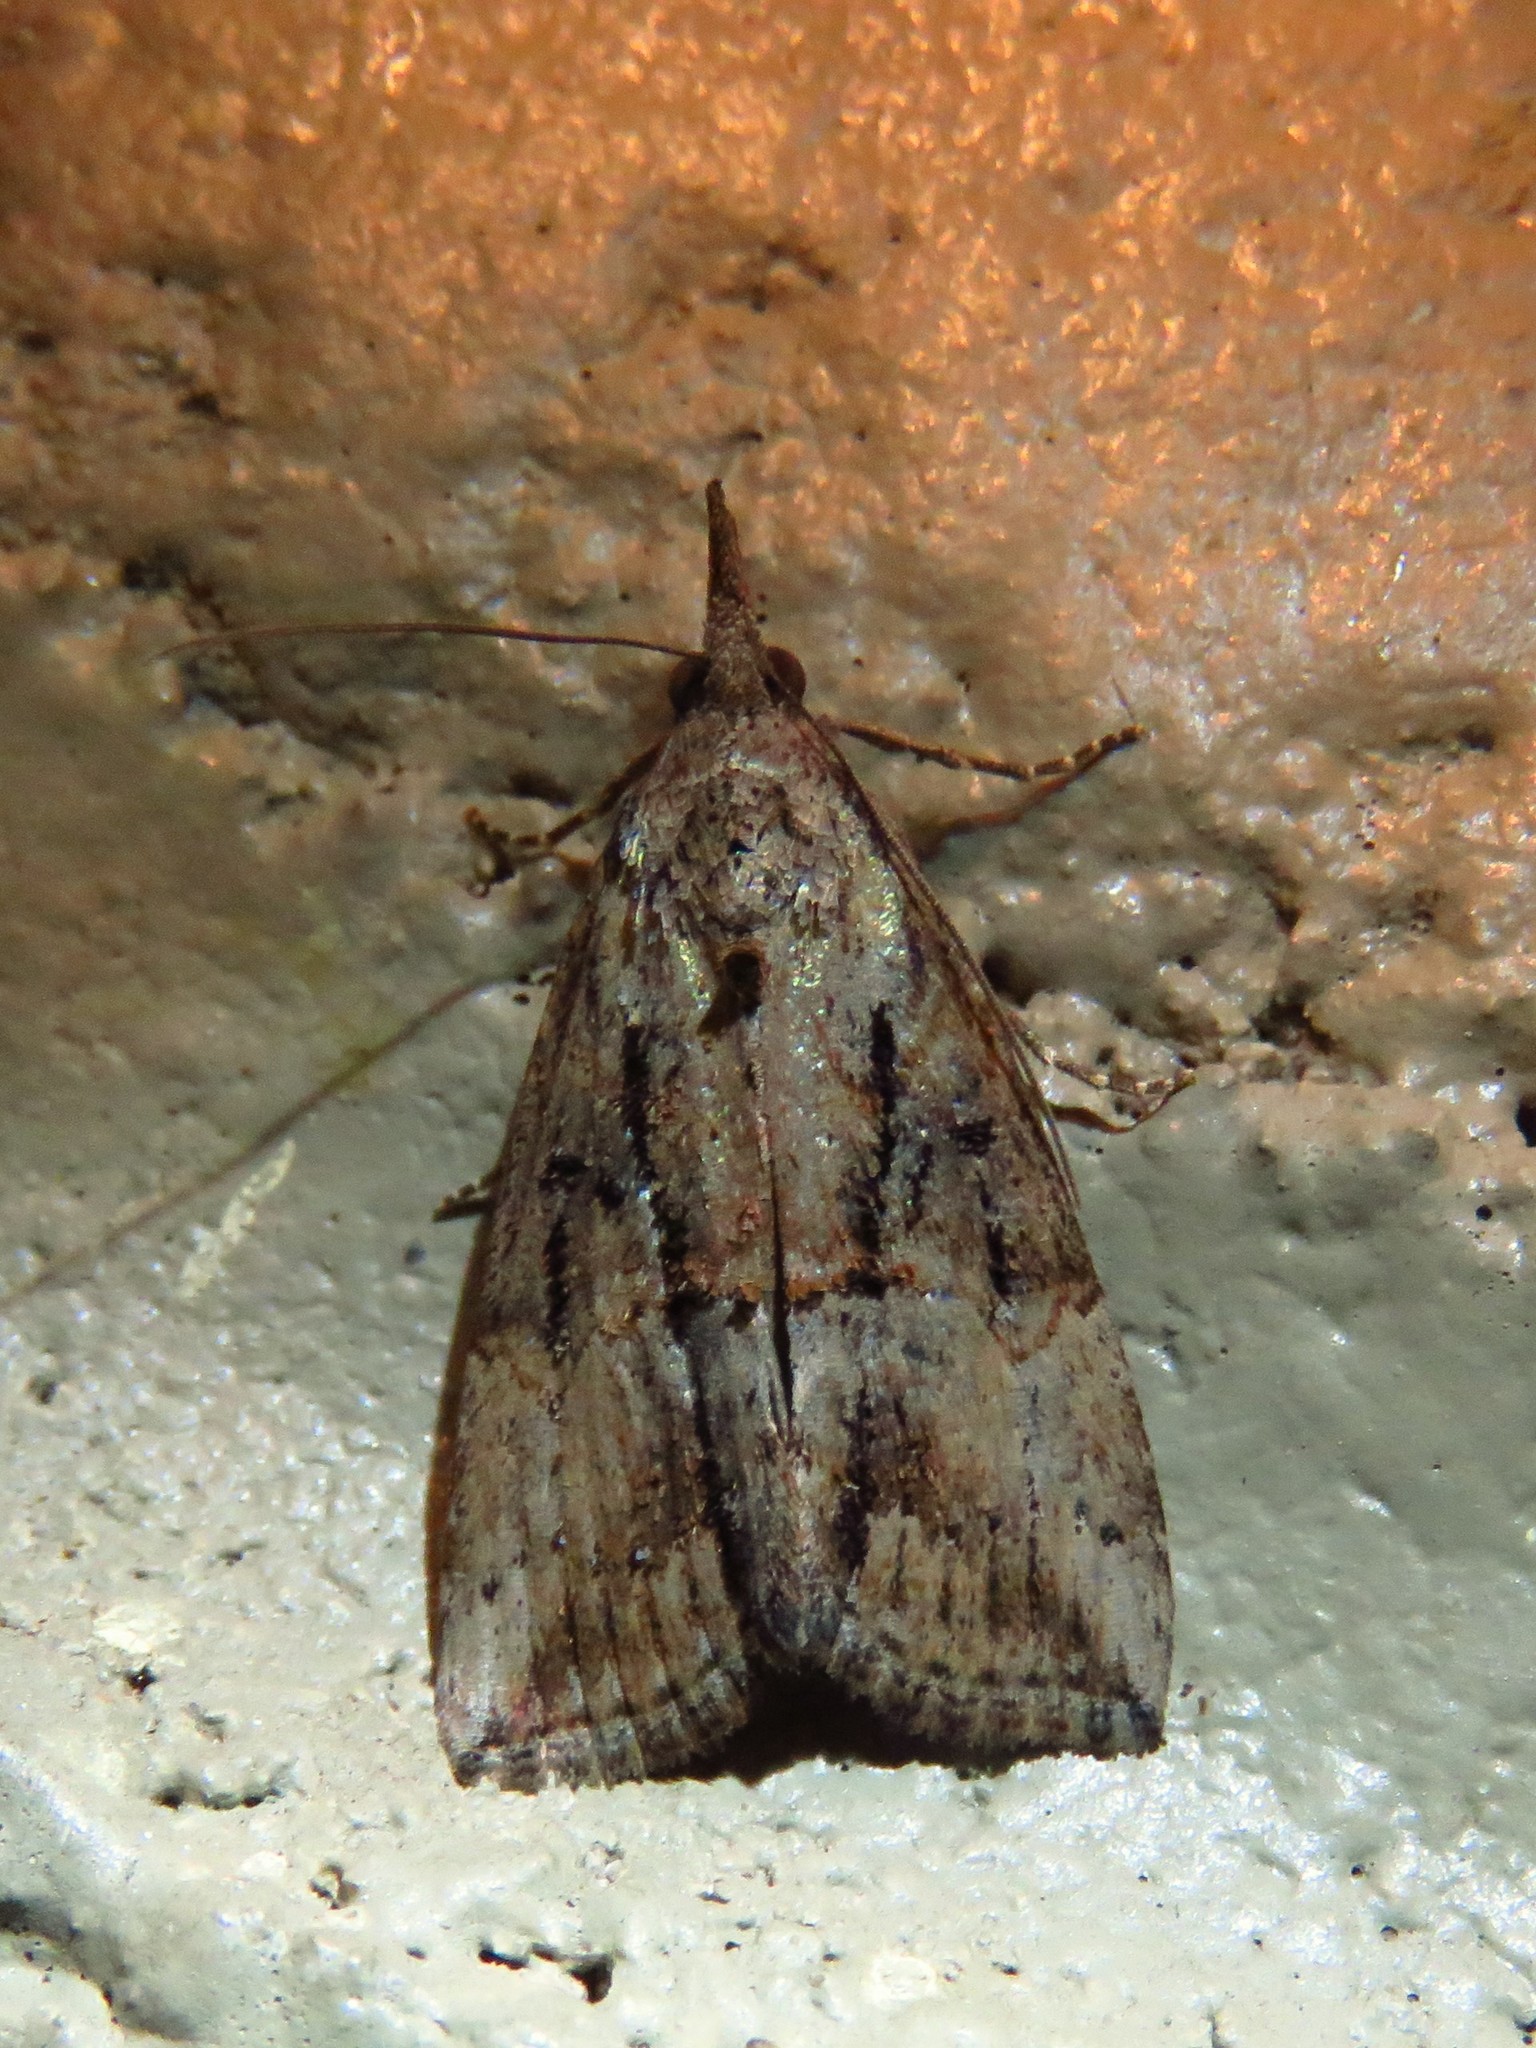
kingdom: Animalia
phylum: Arthropoda
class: Insecta
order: Lepidoptera
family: Erebidae
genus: Hypena
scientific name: Hypena scabra
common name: Green cloverworm
